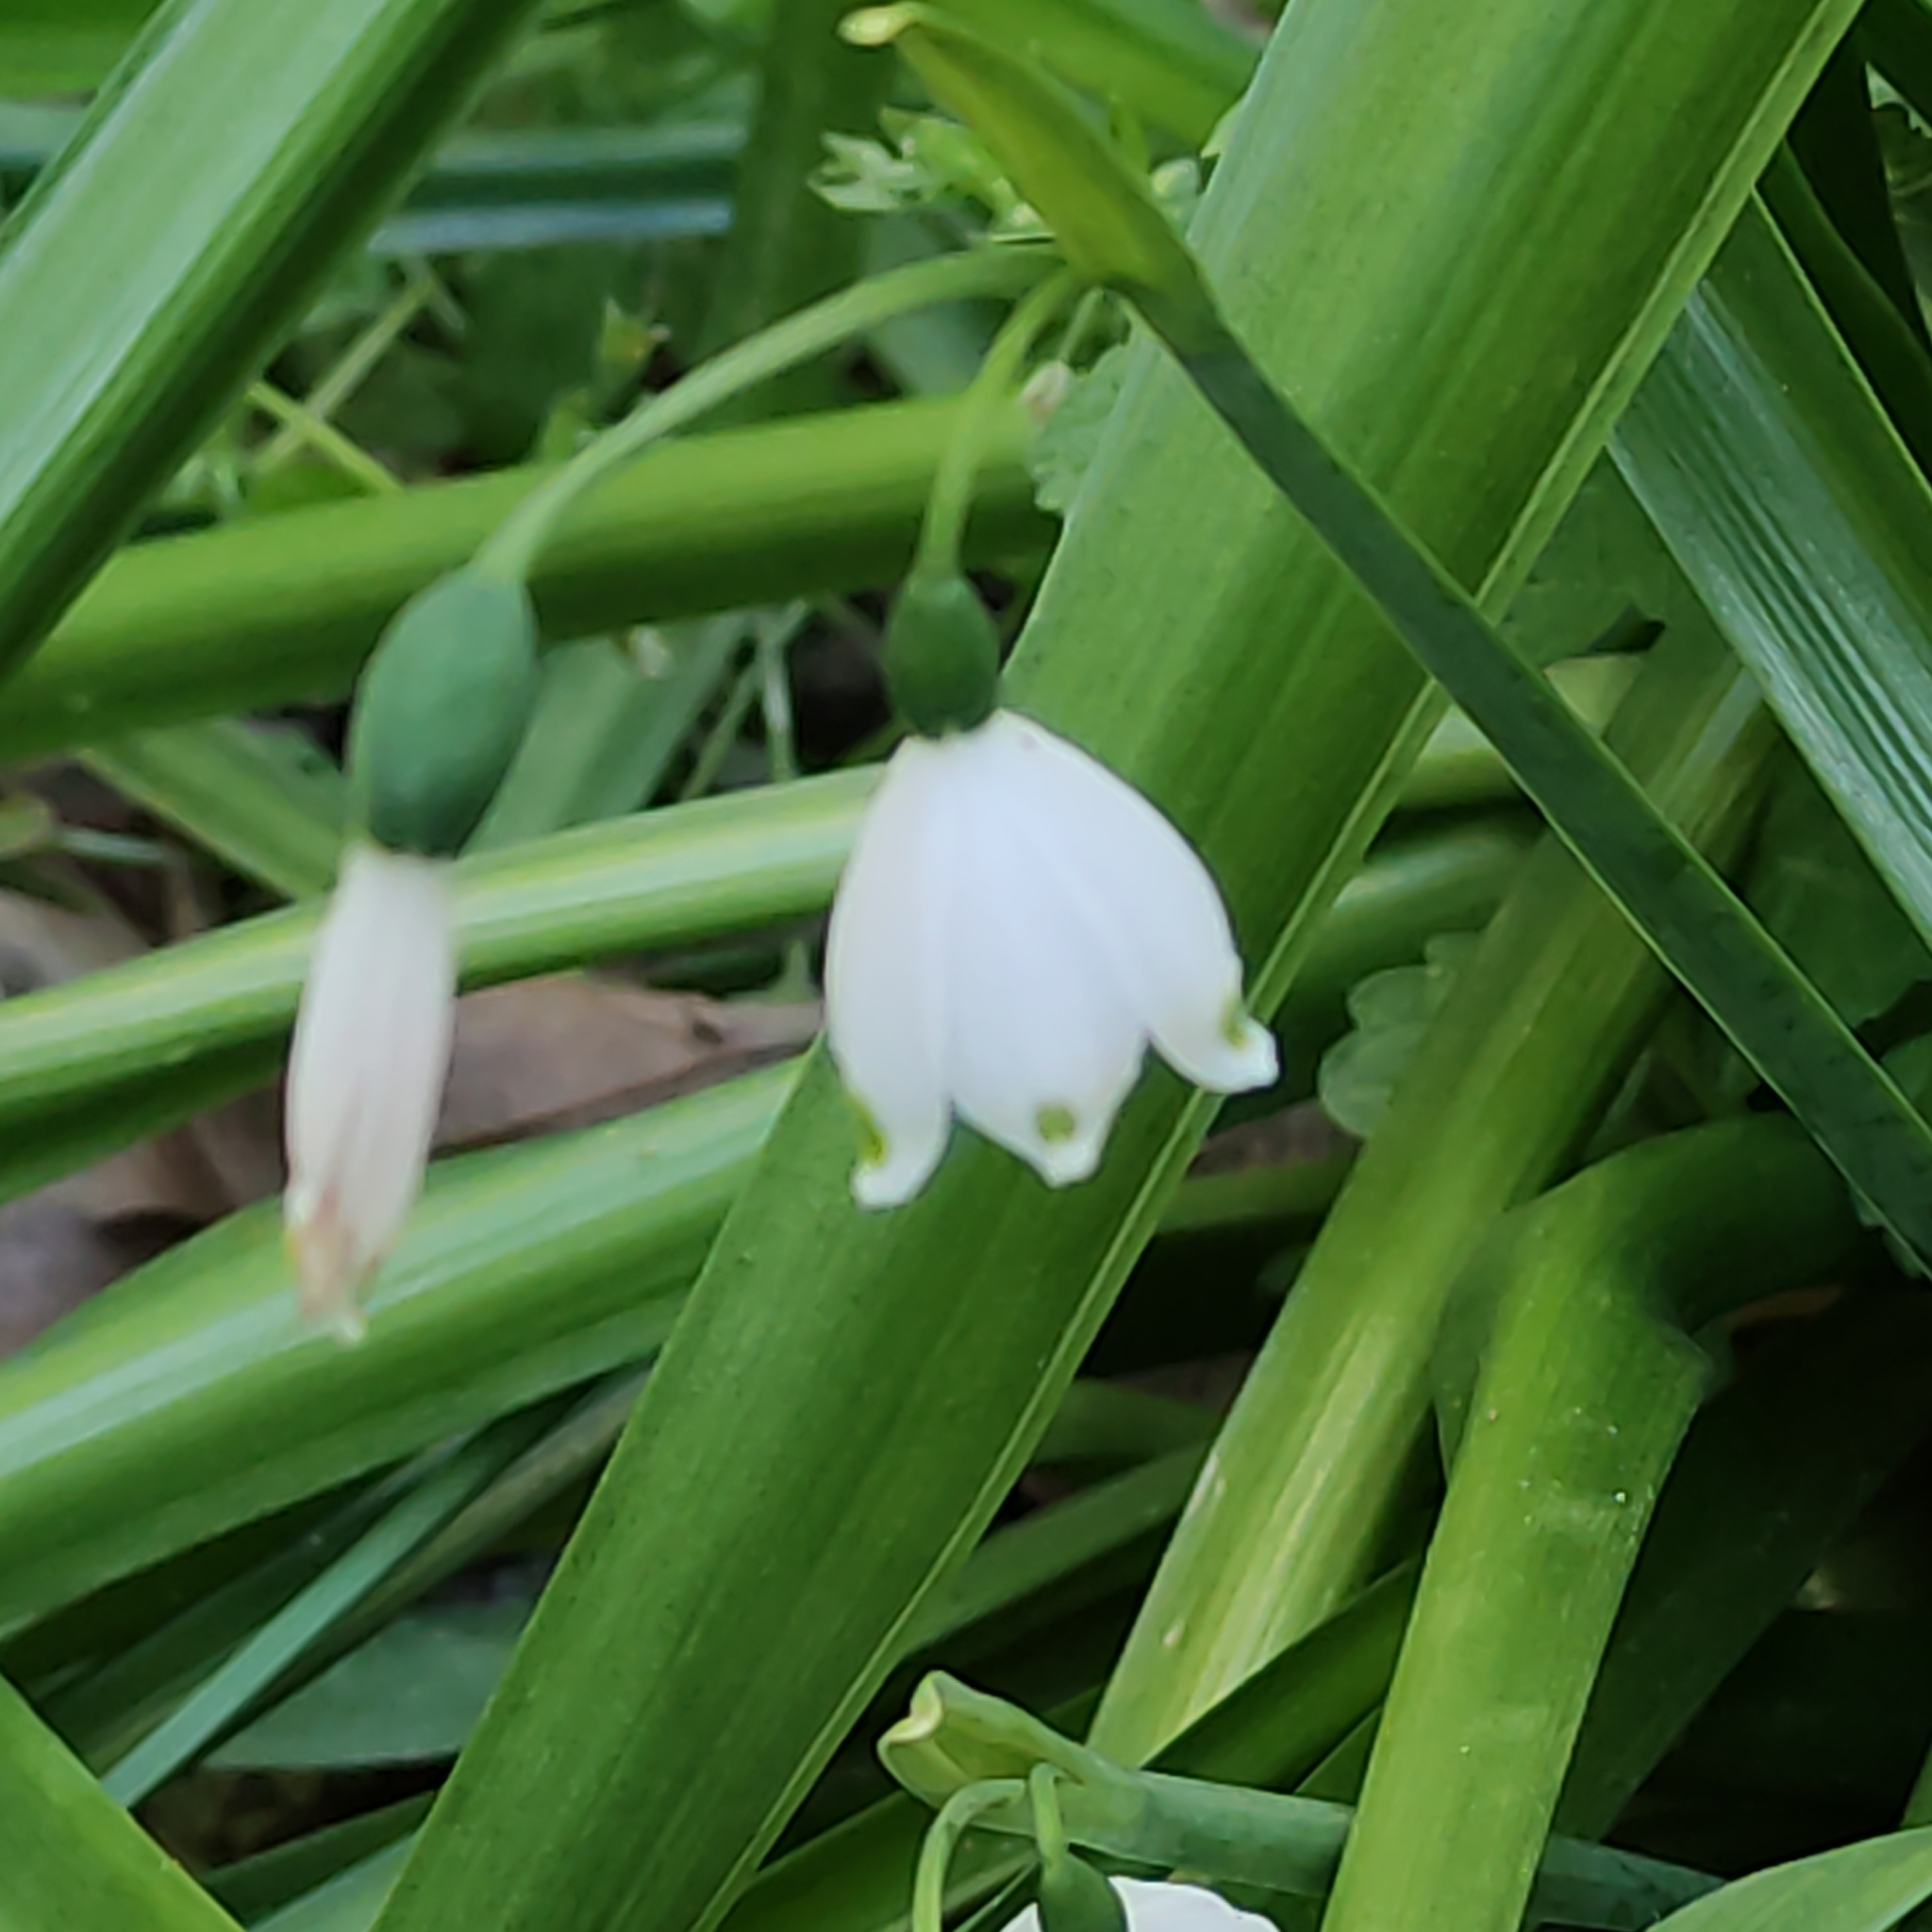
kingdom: Plantae
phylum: Tracheophyta
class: Liliopsida
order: Asparagales
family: Amaryllidaceae
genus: Leucojum
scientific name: Leucojum aestivum
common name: Summer snowflake
